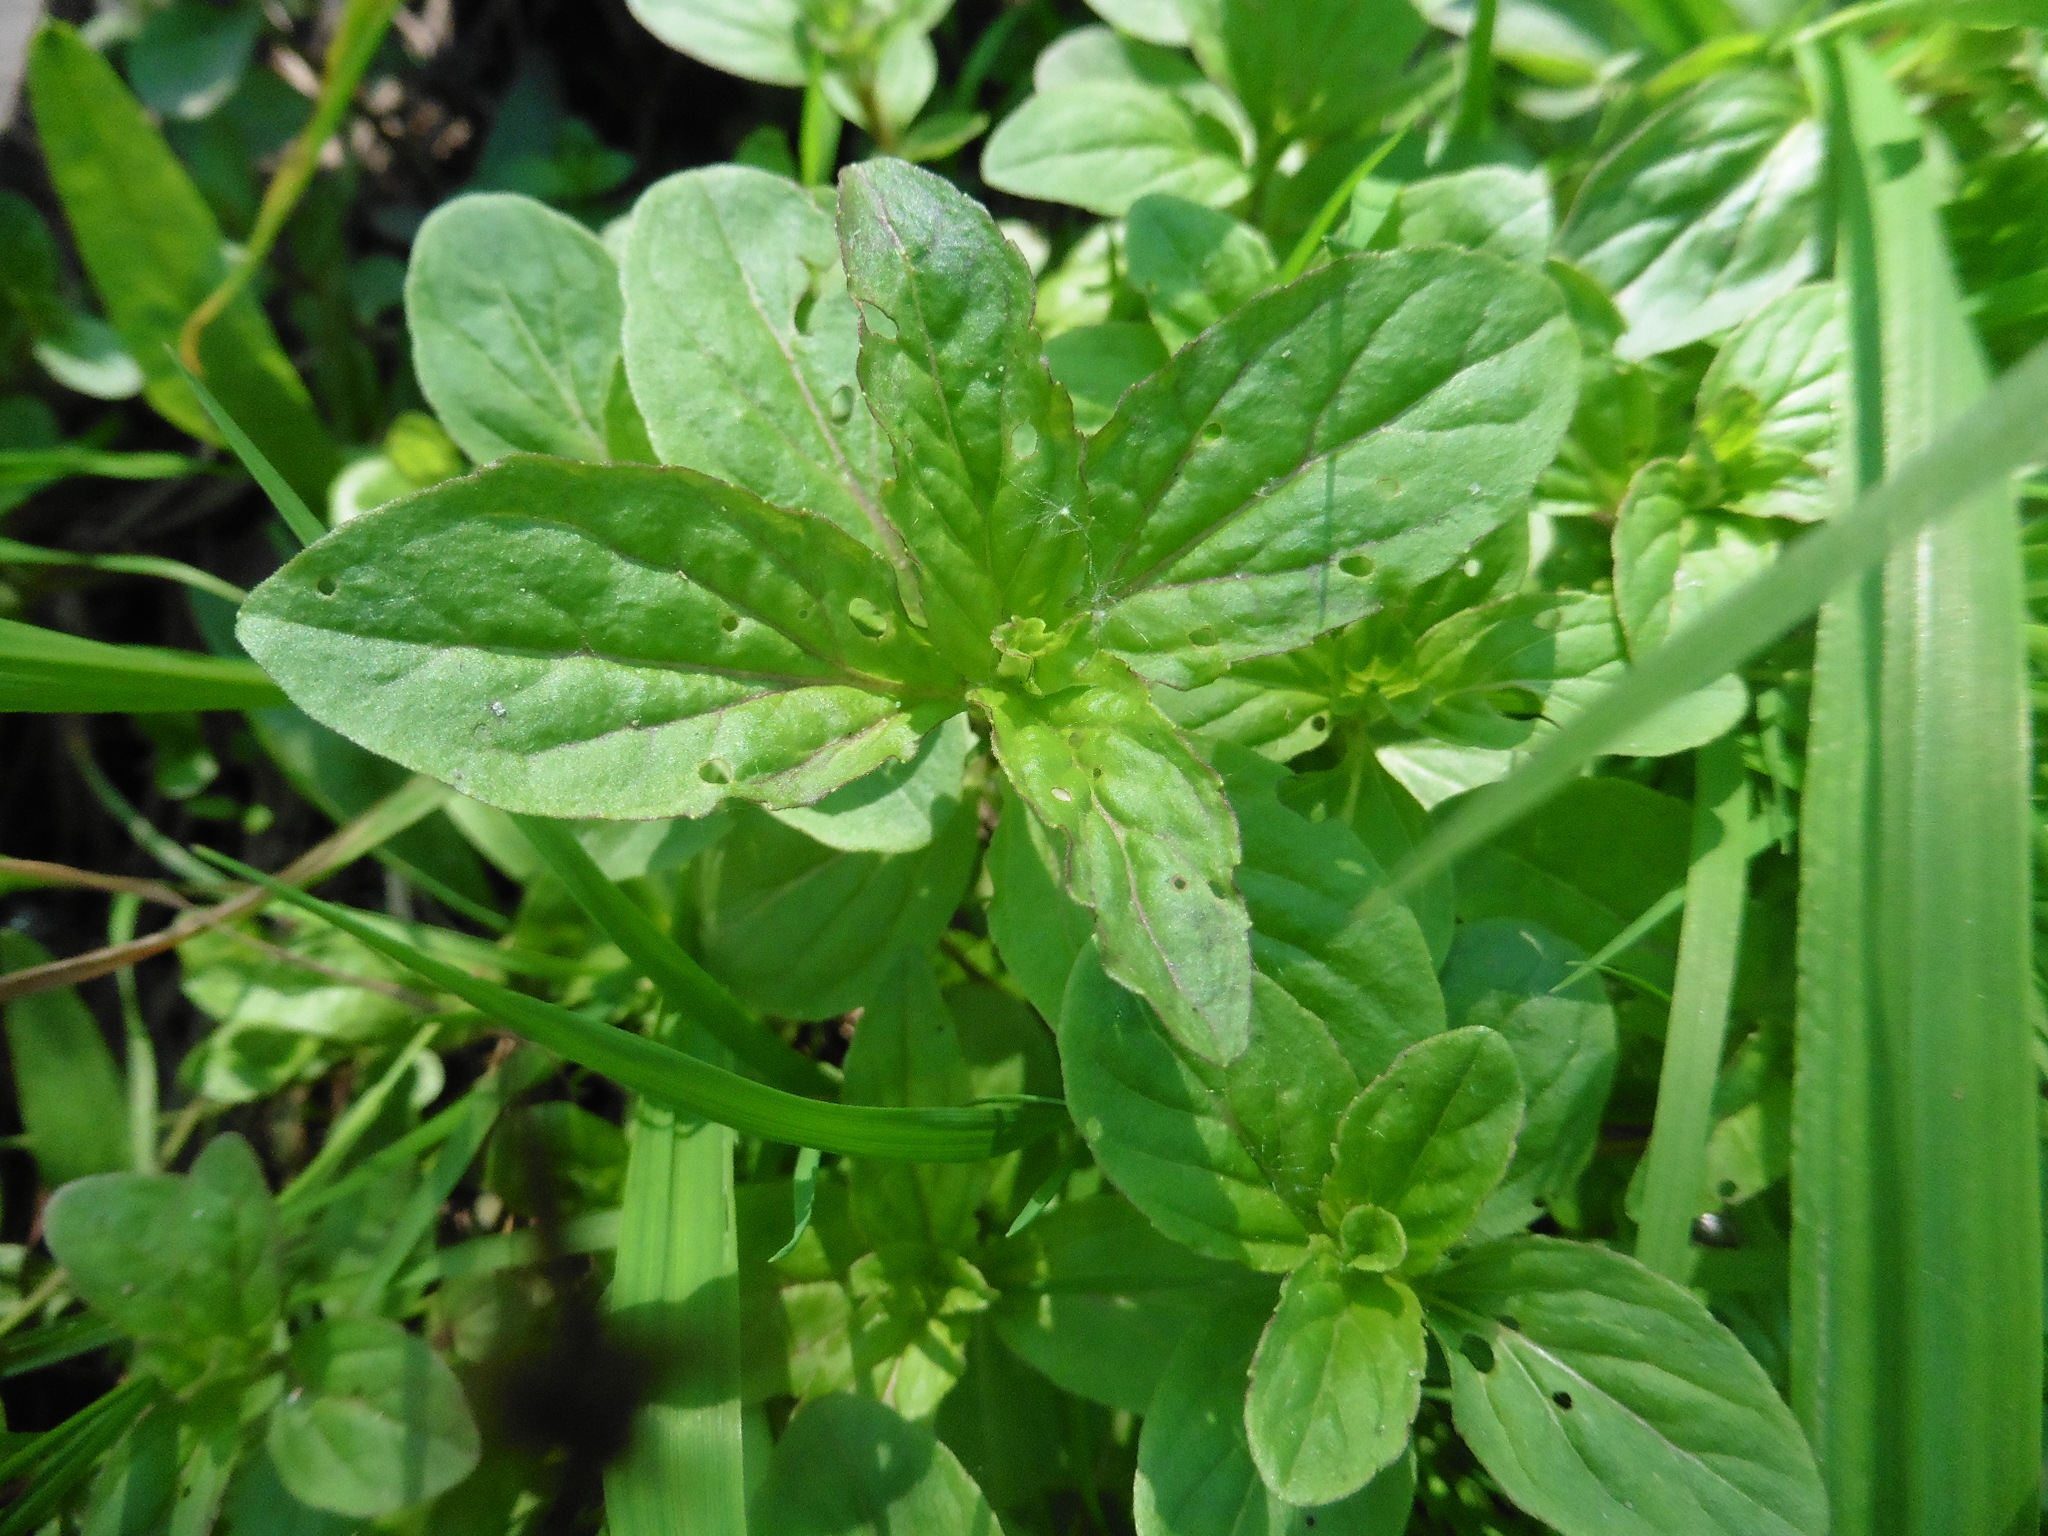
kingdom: Plantae
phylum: Tracheophyta
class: Magnoliopsida
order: Lamiales
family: Lamiaceae
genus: Mentha
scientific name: Mentha arvensis
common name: Corn mint
